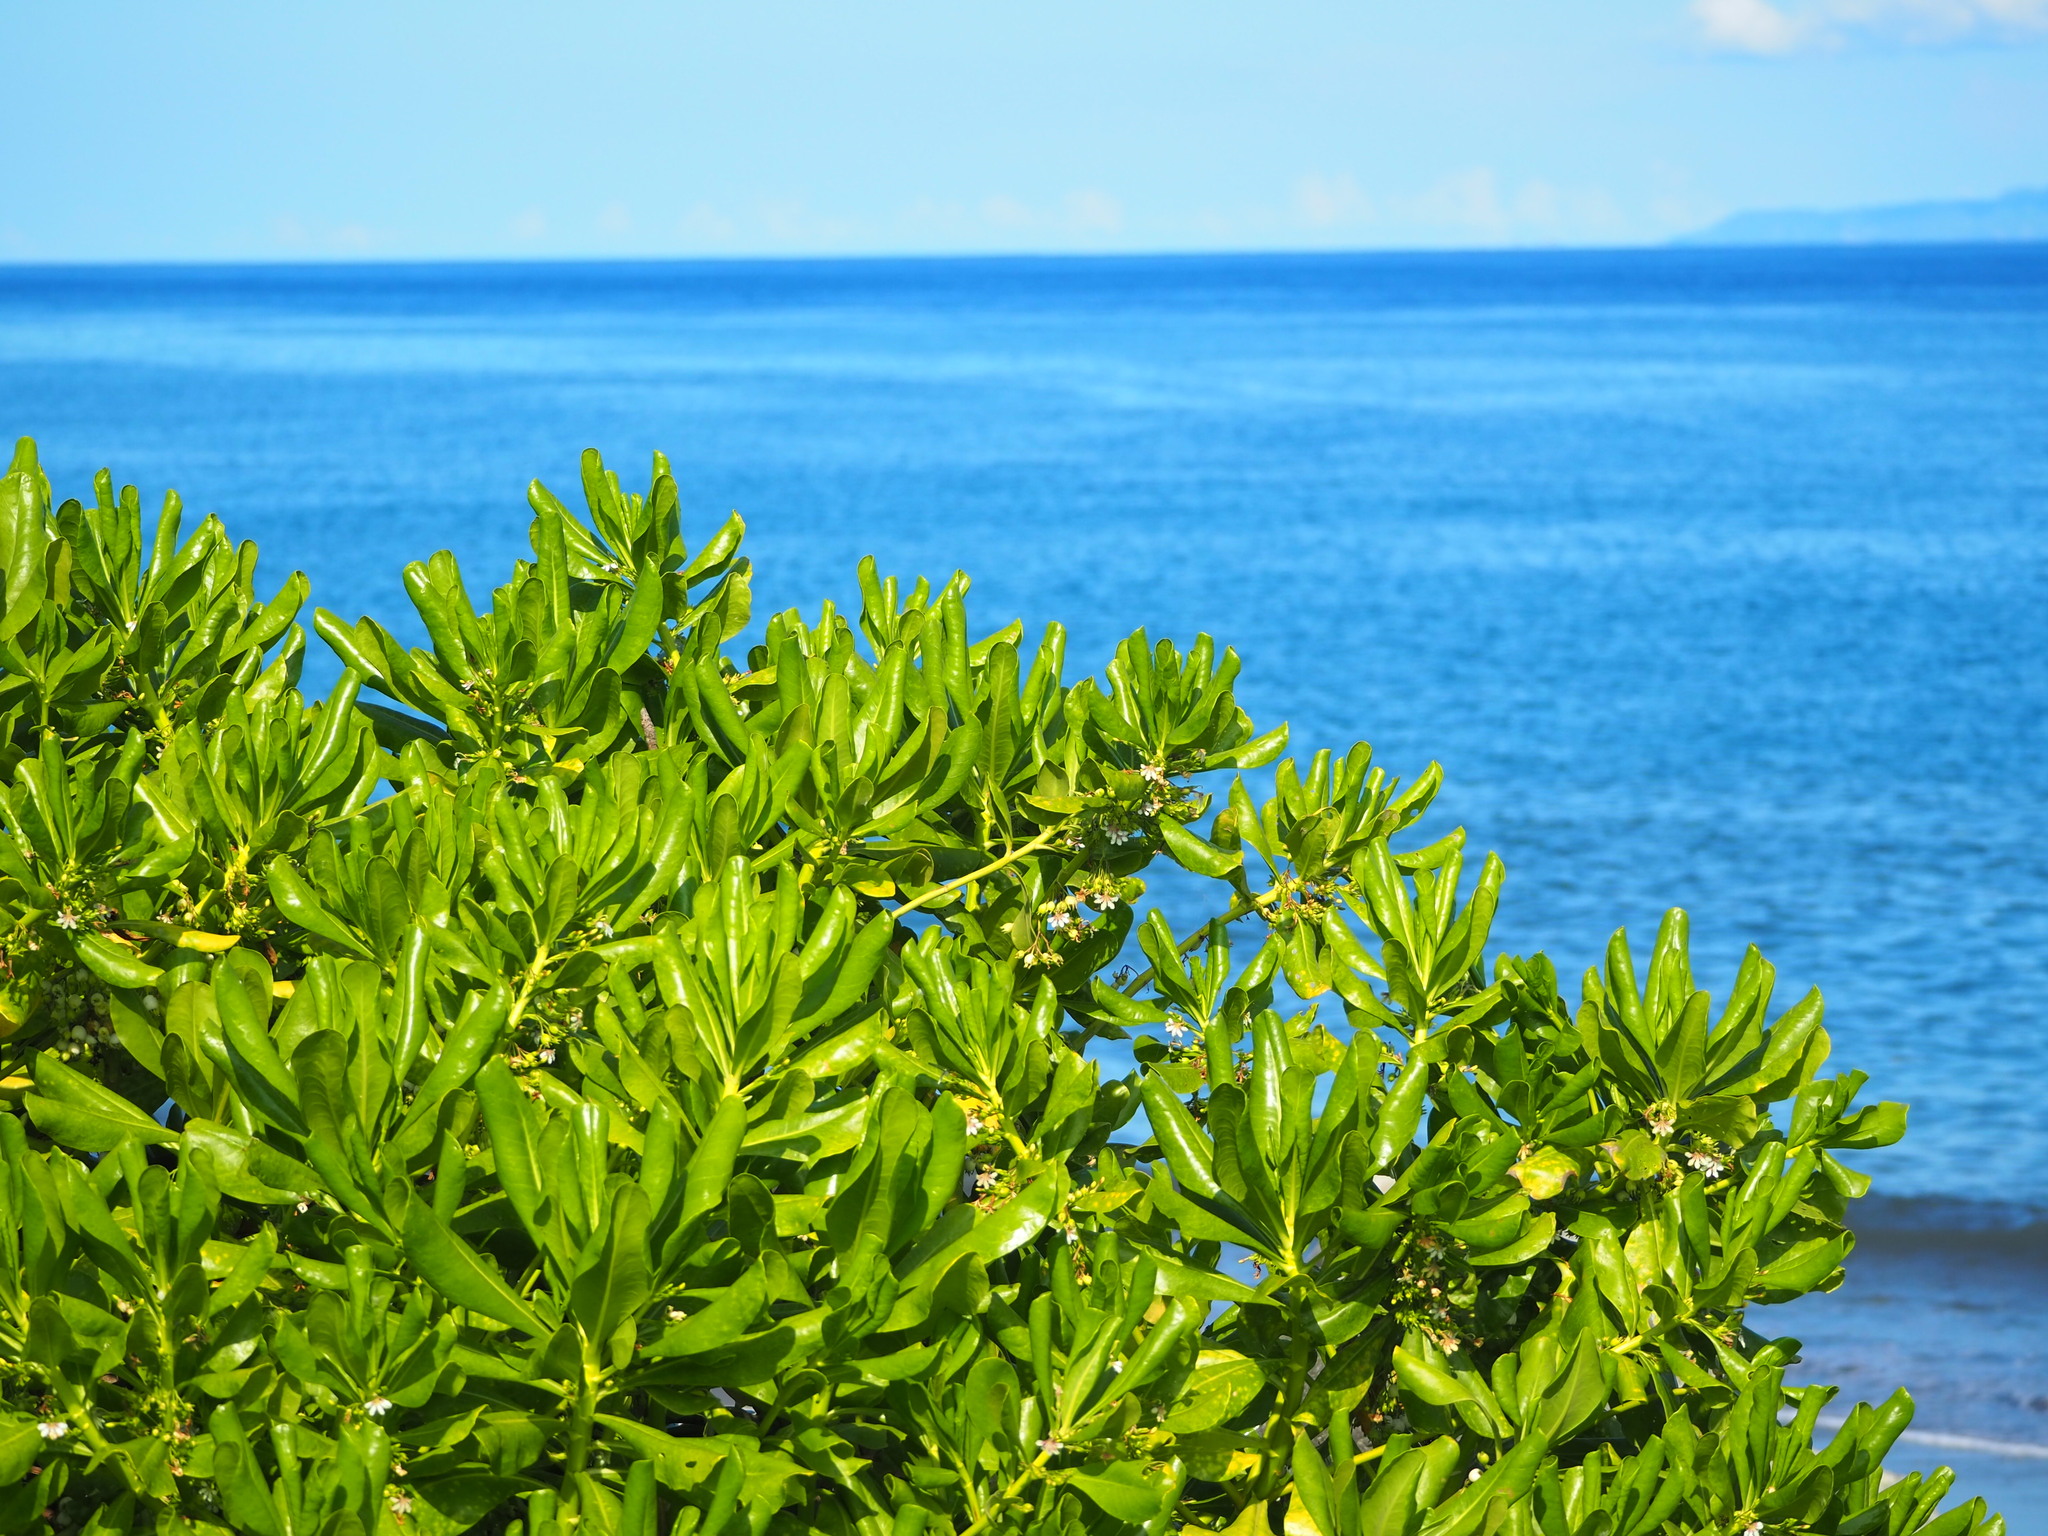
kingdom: Plantae
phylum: Tracheophyta
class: Magnoliopsida
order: Asterales
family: Goodeniaceae
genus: Scaevola
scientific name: Scaevola taccada
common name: Sea lettucetree
